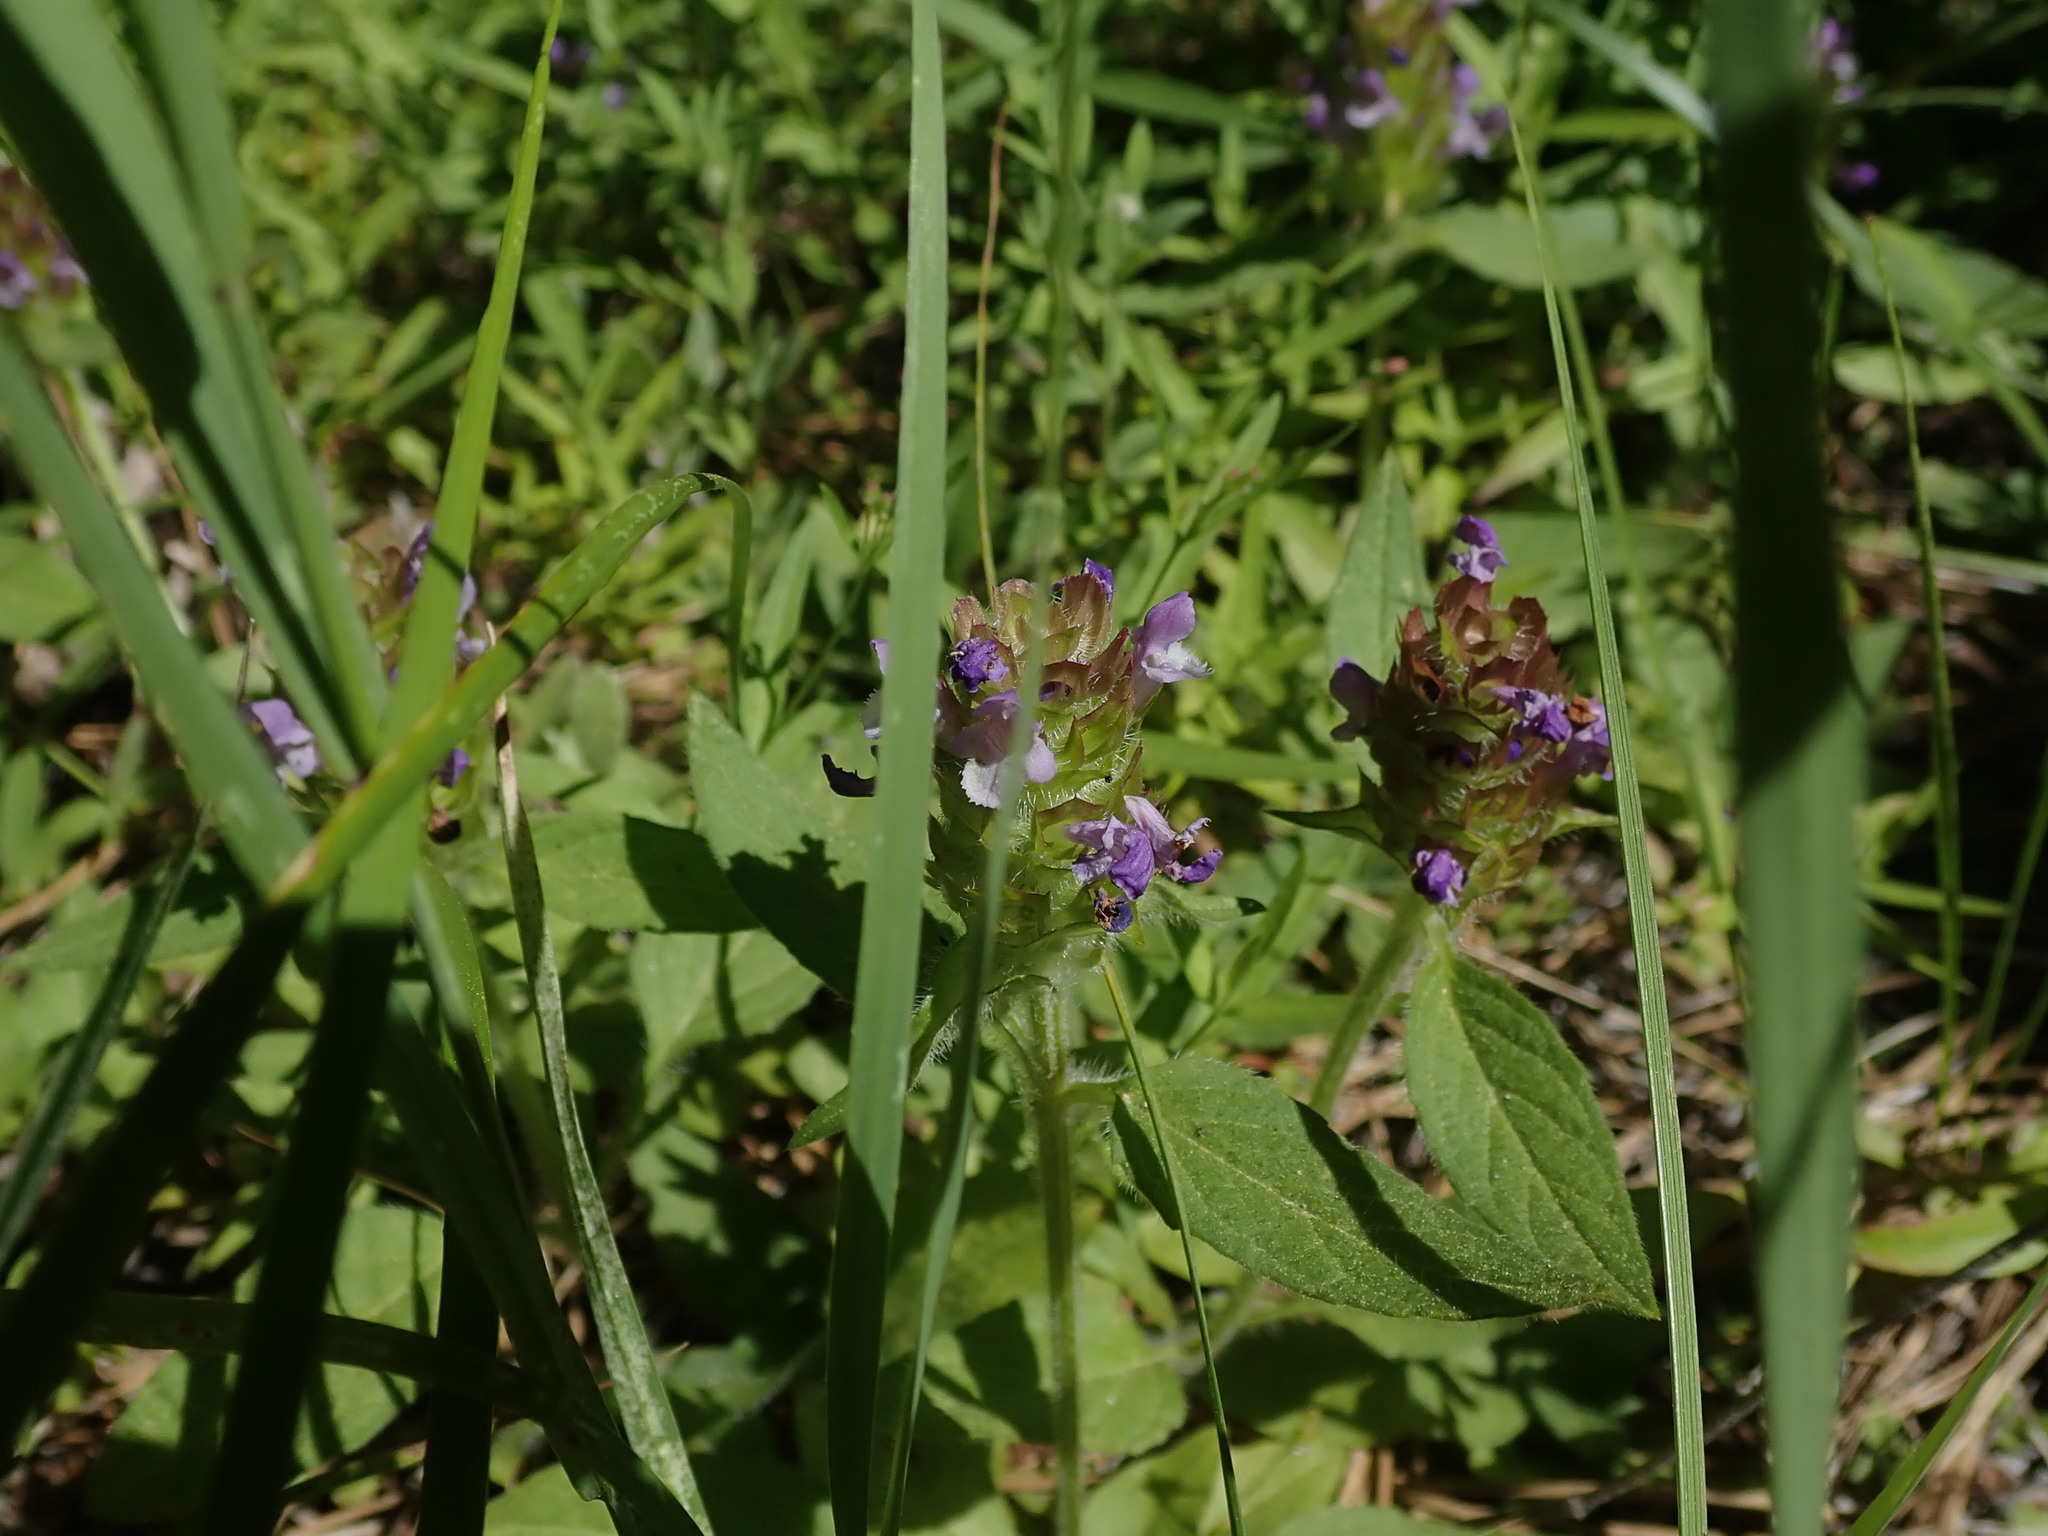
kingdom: Plantae
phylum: Tracheophyta
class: Magnoliopsida
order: Lamiales
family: Lamiaceae
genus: Prunella
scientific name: Prunella vulgaris
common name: Heal-all
